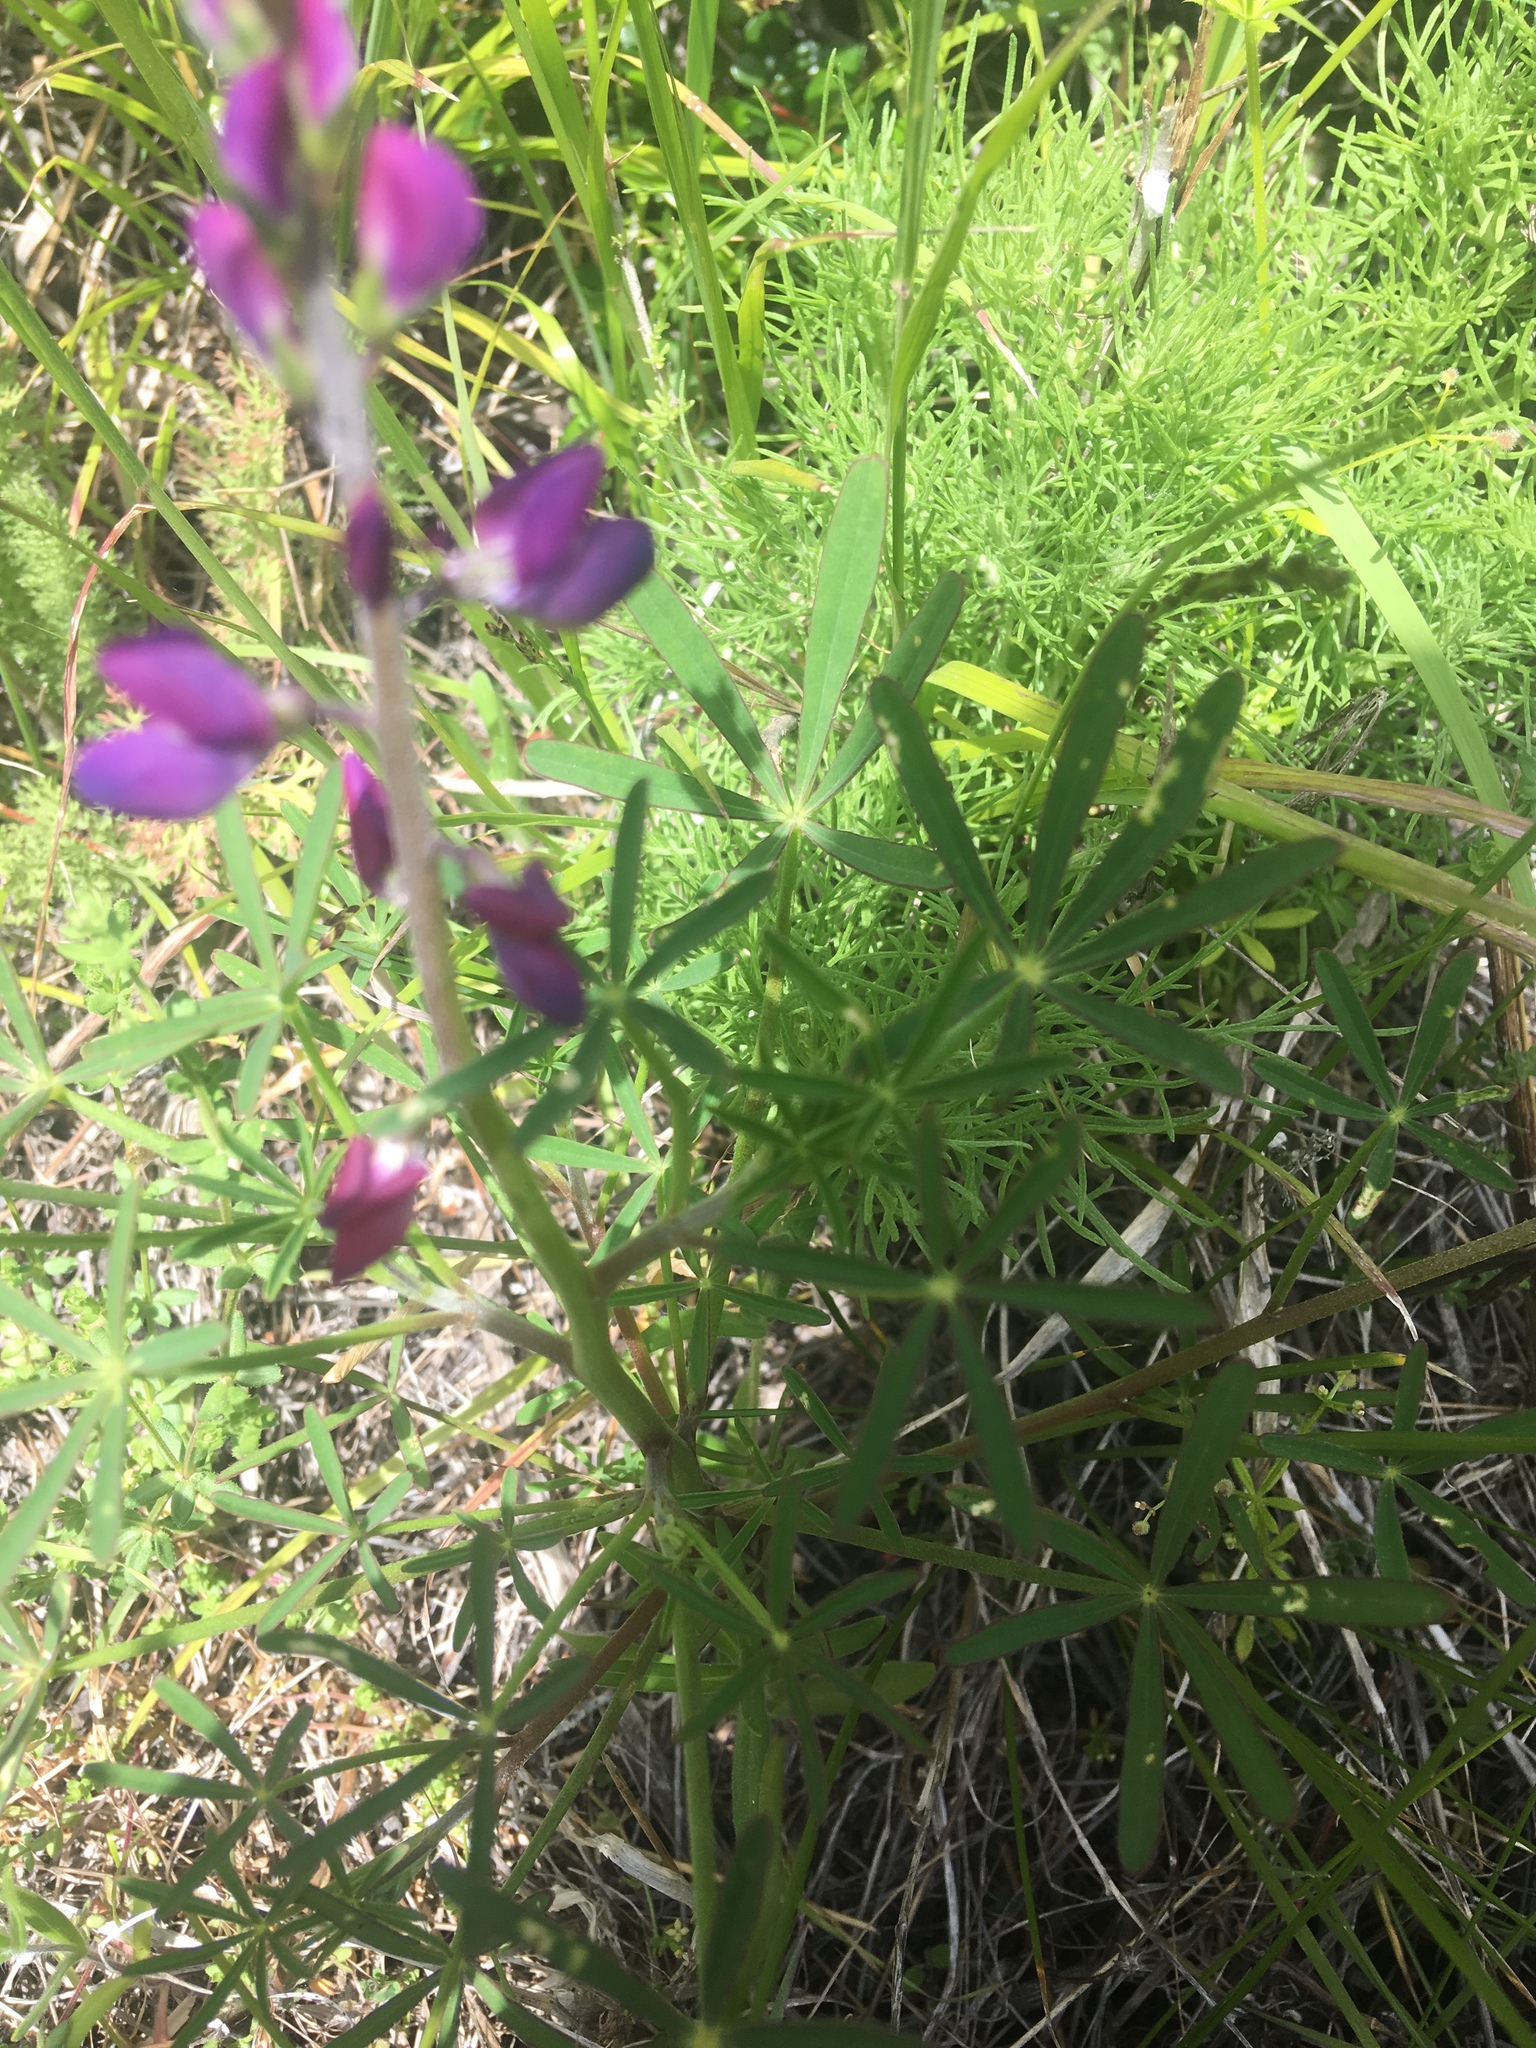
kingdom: Plantae
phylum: Tracheophyta
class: Magnoliopsida
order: Fabales
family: Fabaceae
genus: Lupinus
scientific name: Lupinus truncatus
